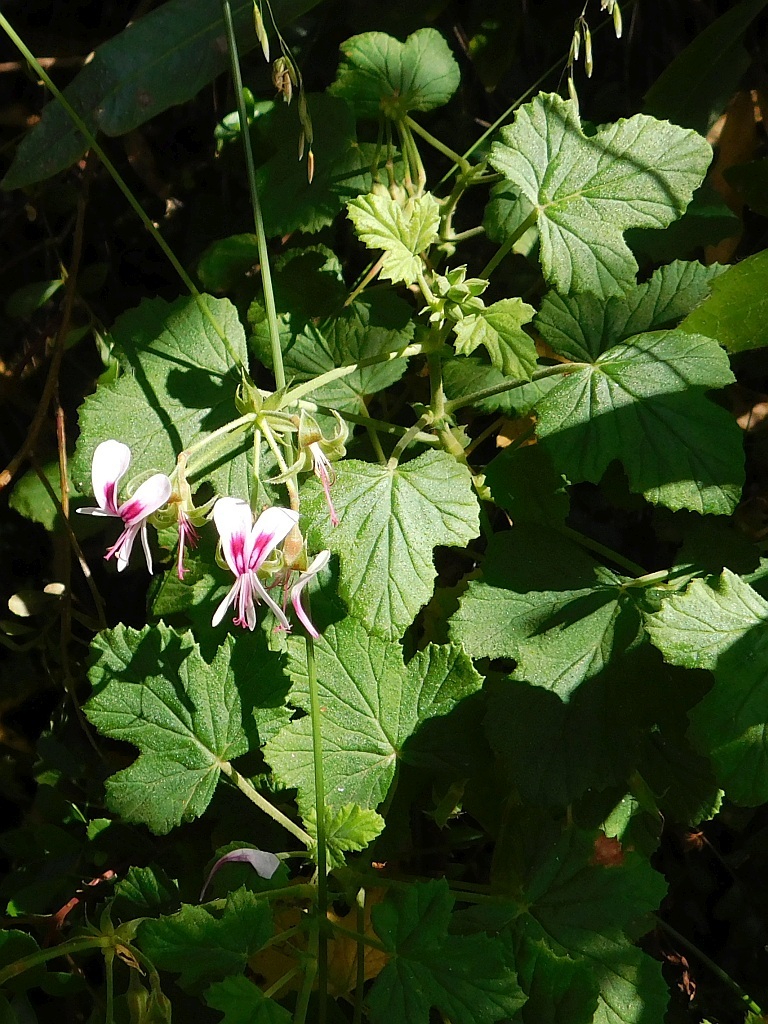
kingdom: Plantae
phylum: Tracheophyta
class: Magnoliopsida
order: Geraniales
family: Geraniaceae
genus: Pelargonium
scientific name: Pelargonium greytonense
